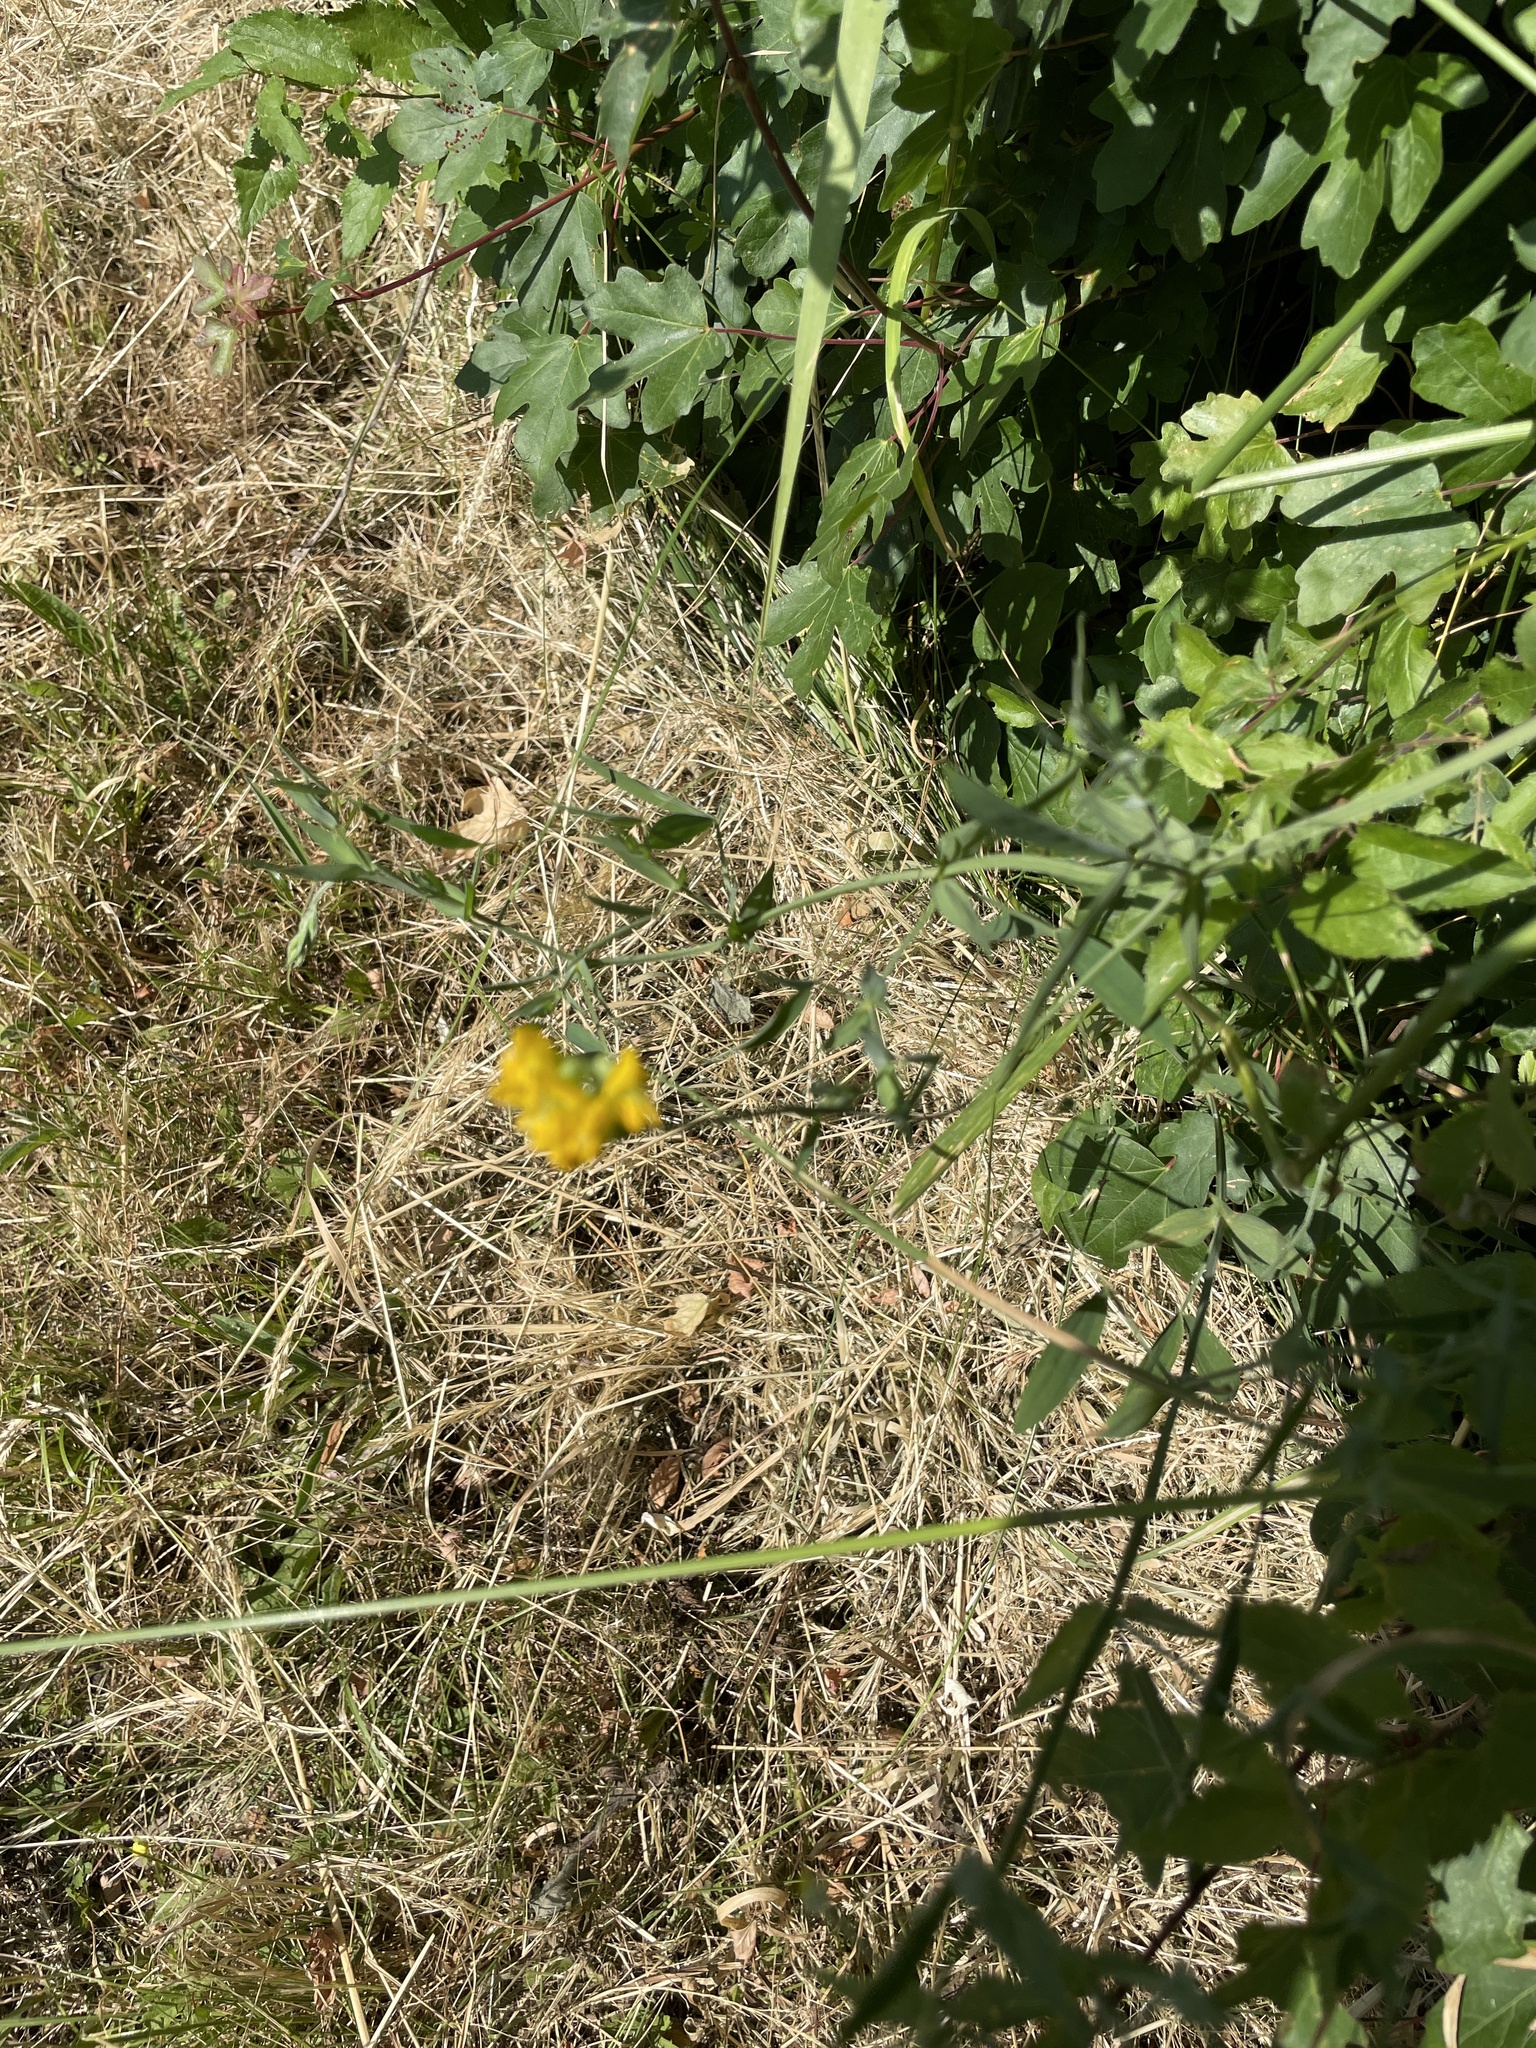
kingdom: Plantae
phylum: Tracheophyta
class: Magnoliopsida
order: Fabales
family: Fabaceae
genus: Lathyrus
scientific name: Lathyrus pratensis
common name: Meadow vetchling
